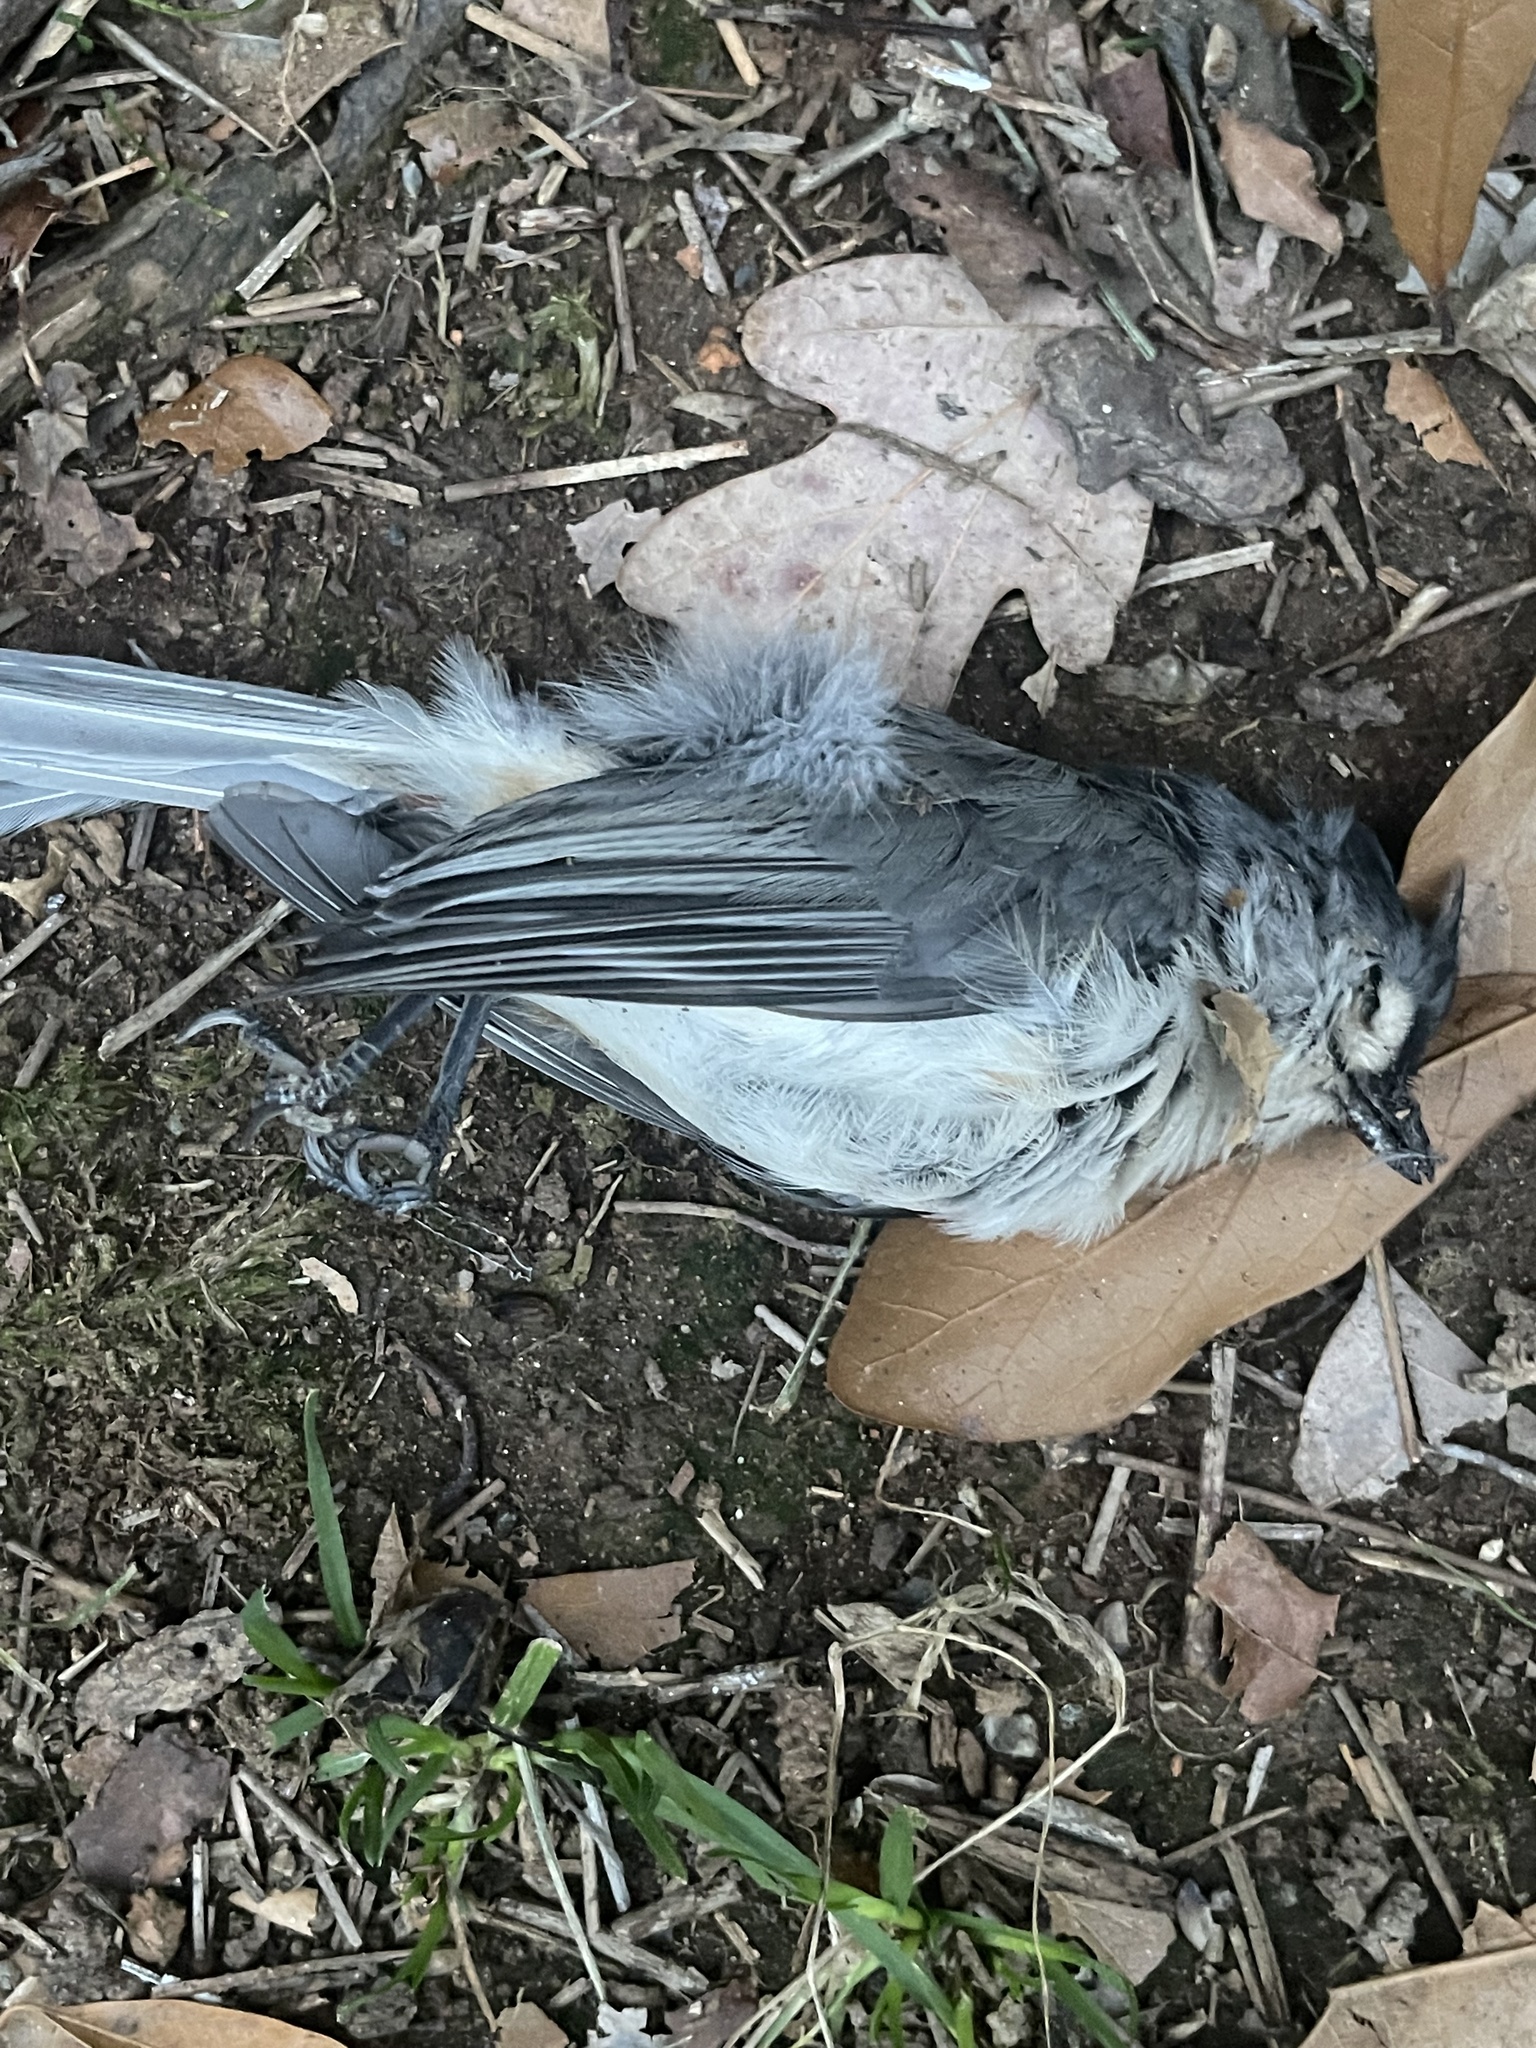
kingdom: Animalia
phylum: Chordata
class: Aves
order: Passeriformes
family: Paridae
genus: Baeolophus
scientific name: Baeolophus bicolor
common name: Tufted titmouse
